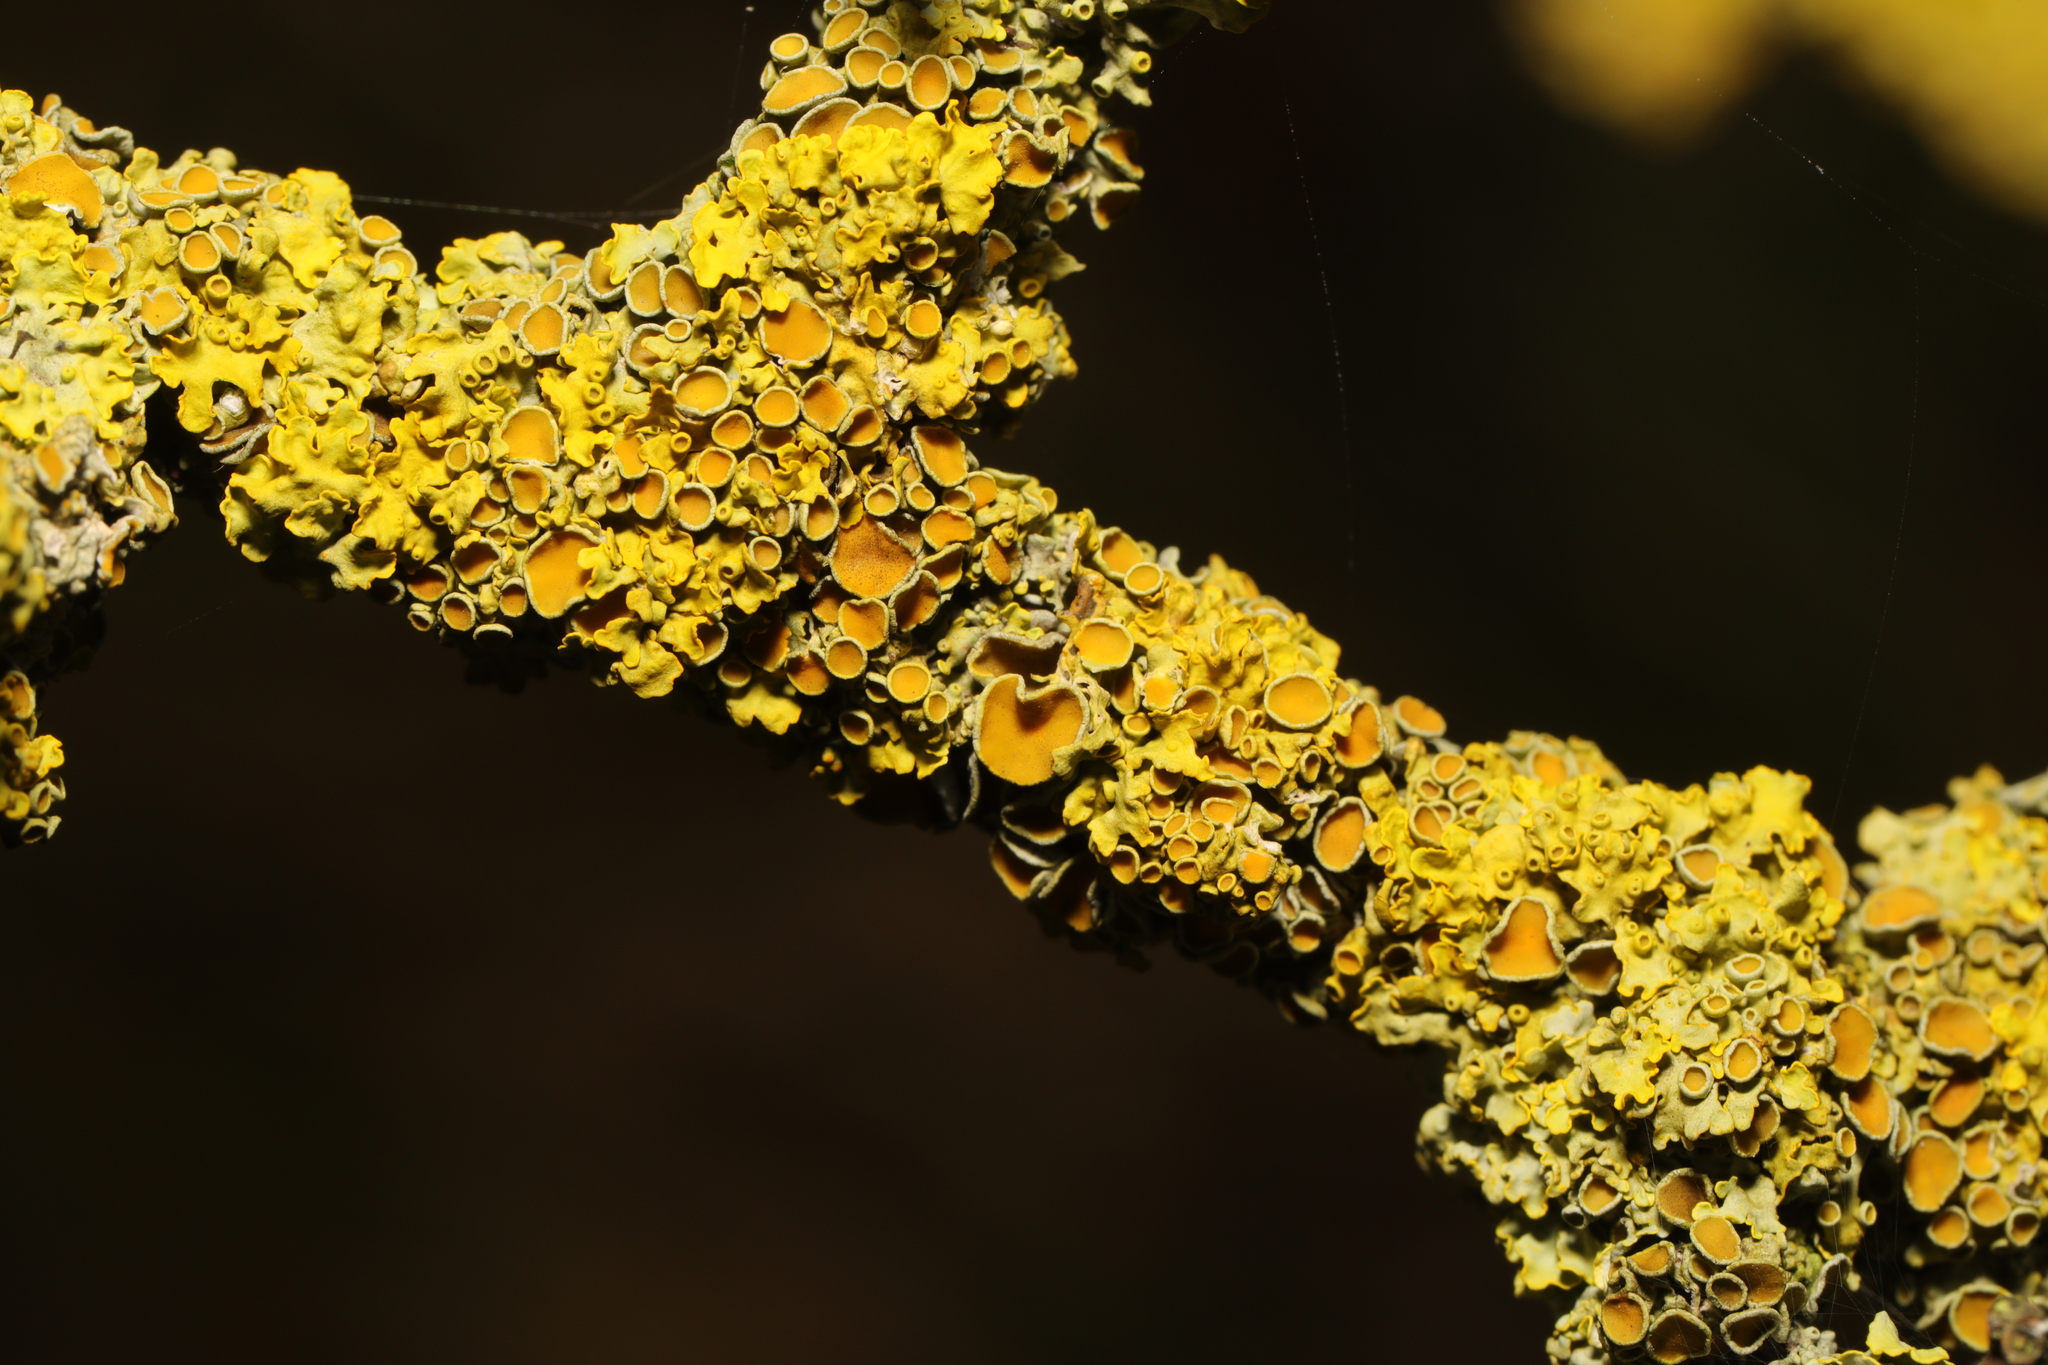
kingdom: Fungi
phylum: Ascomycota
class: Lecanoromycetes
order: Teloschistales
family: Teloschistaceae
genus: Xanthoria
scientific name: Xanthoria parietina
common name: Common orange lichen
